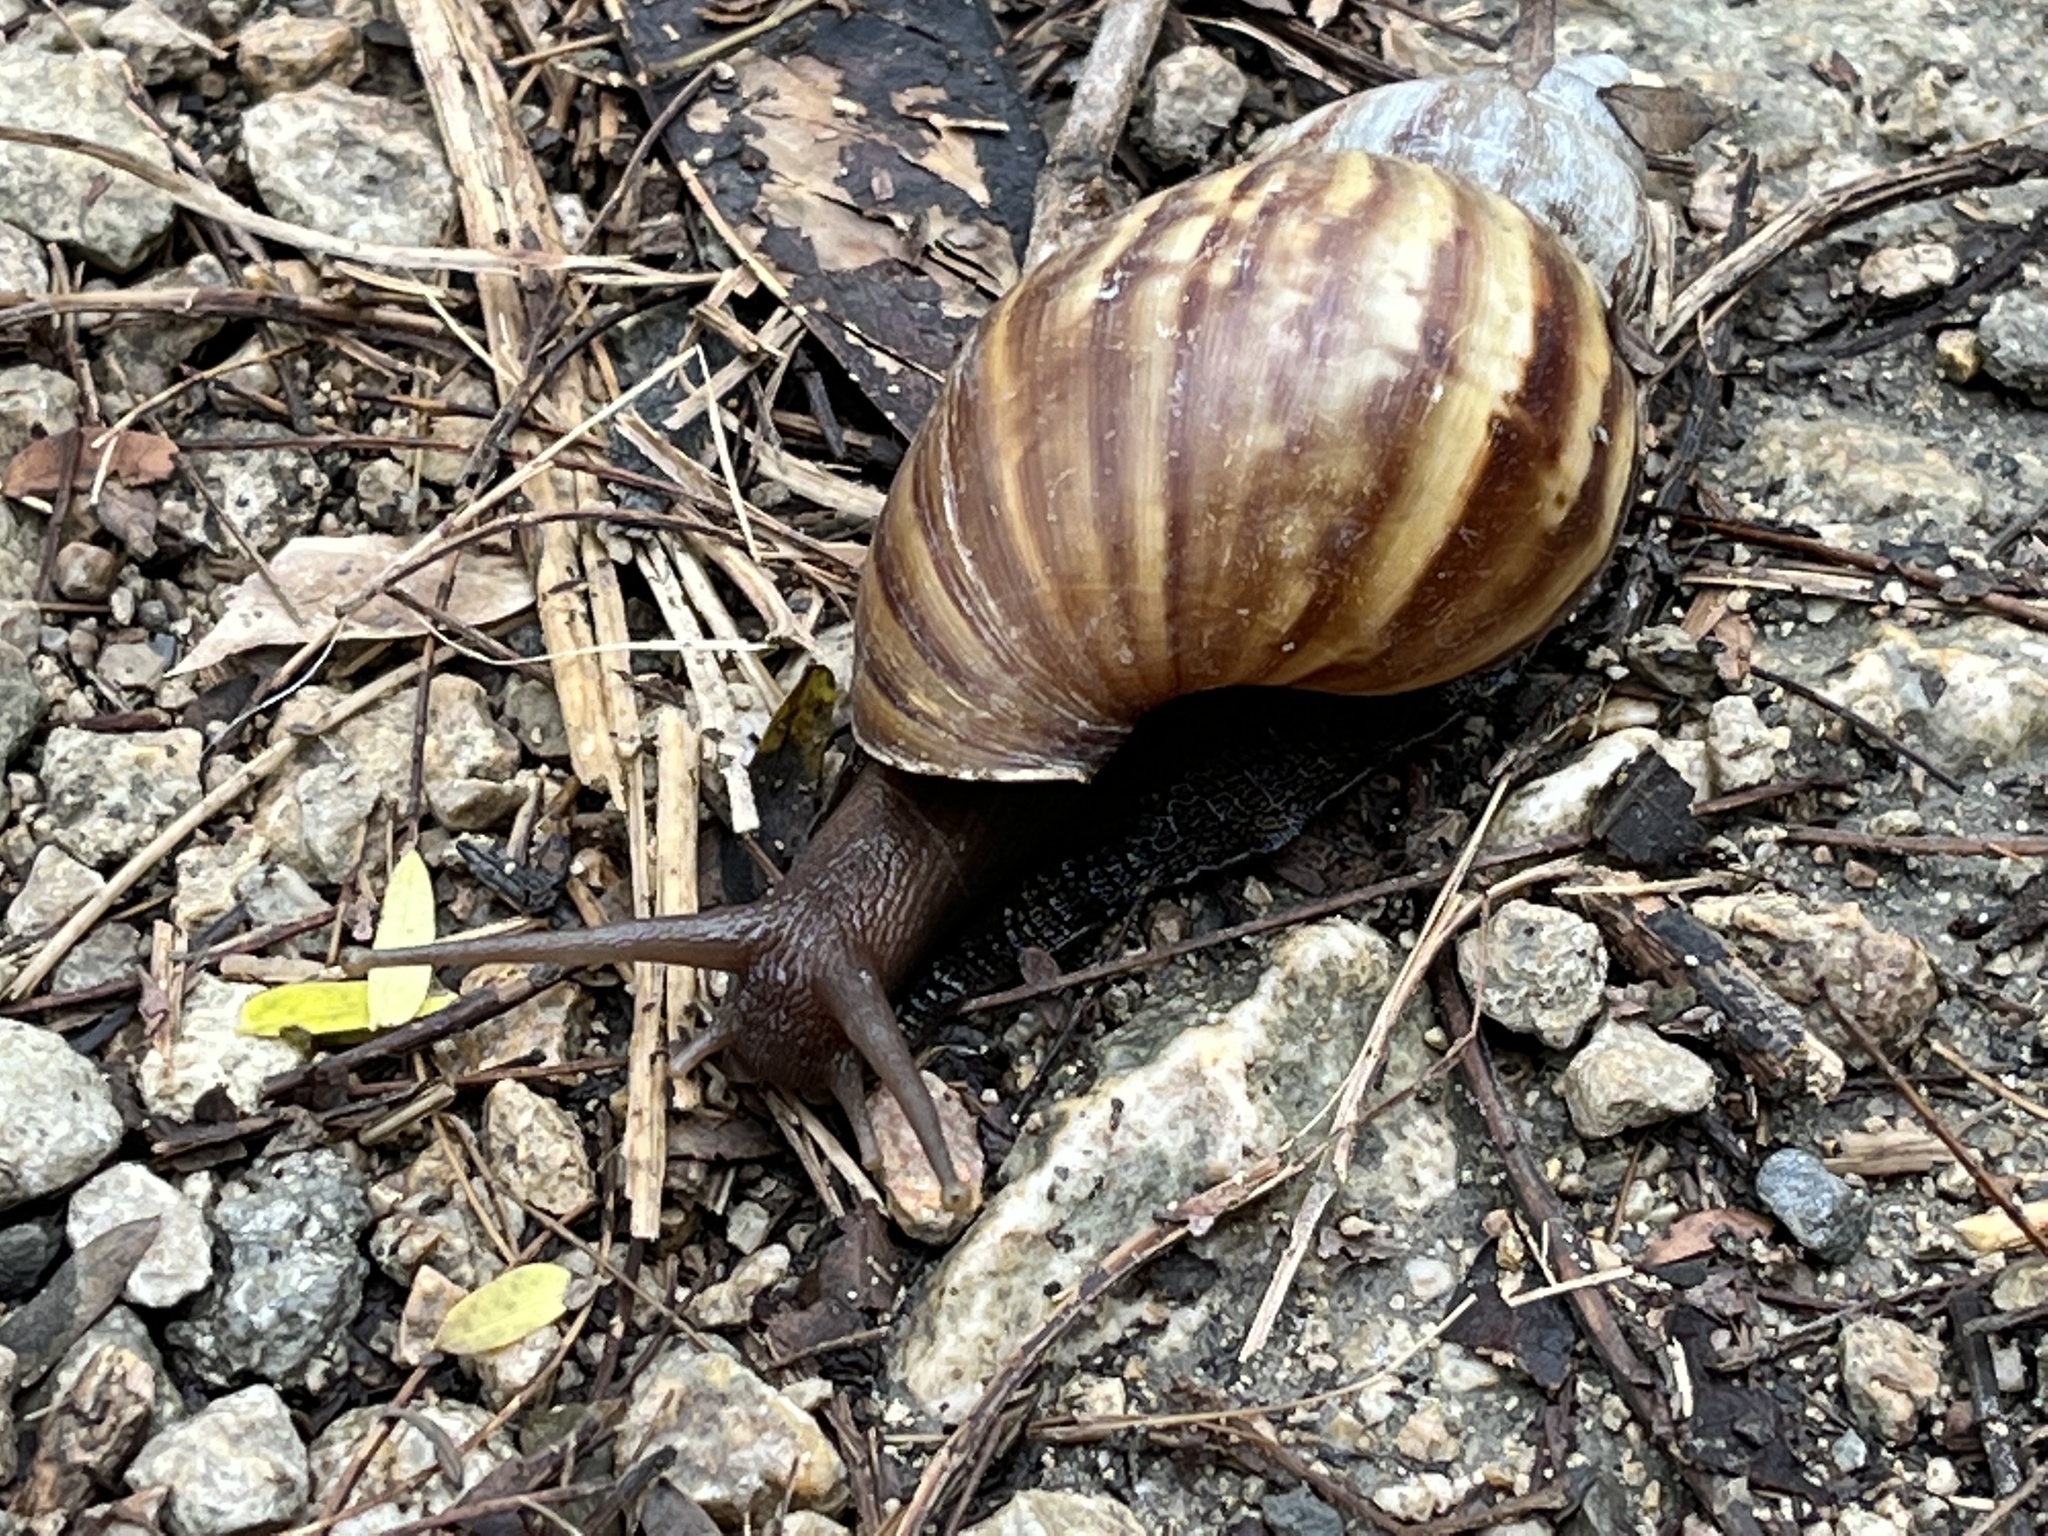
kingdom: Animalia
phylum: Mollusca
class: Gastropoda
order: Stylommatophora
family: Achatinidae
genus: Lissachatina
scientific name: Lissachatina fulica
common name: Giant african snail
